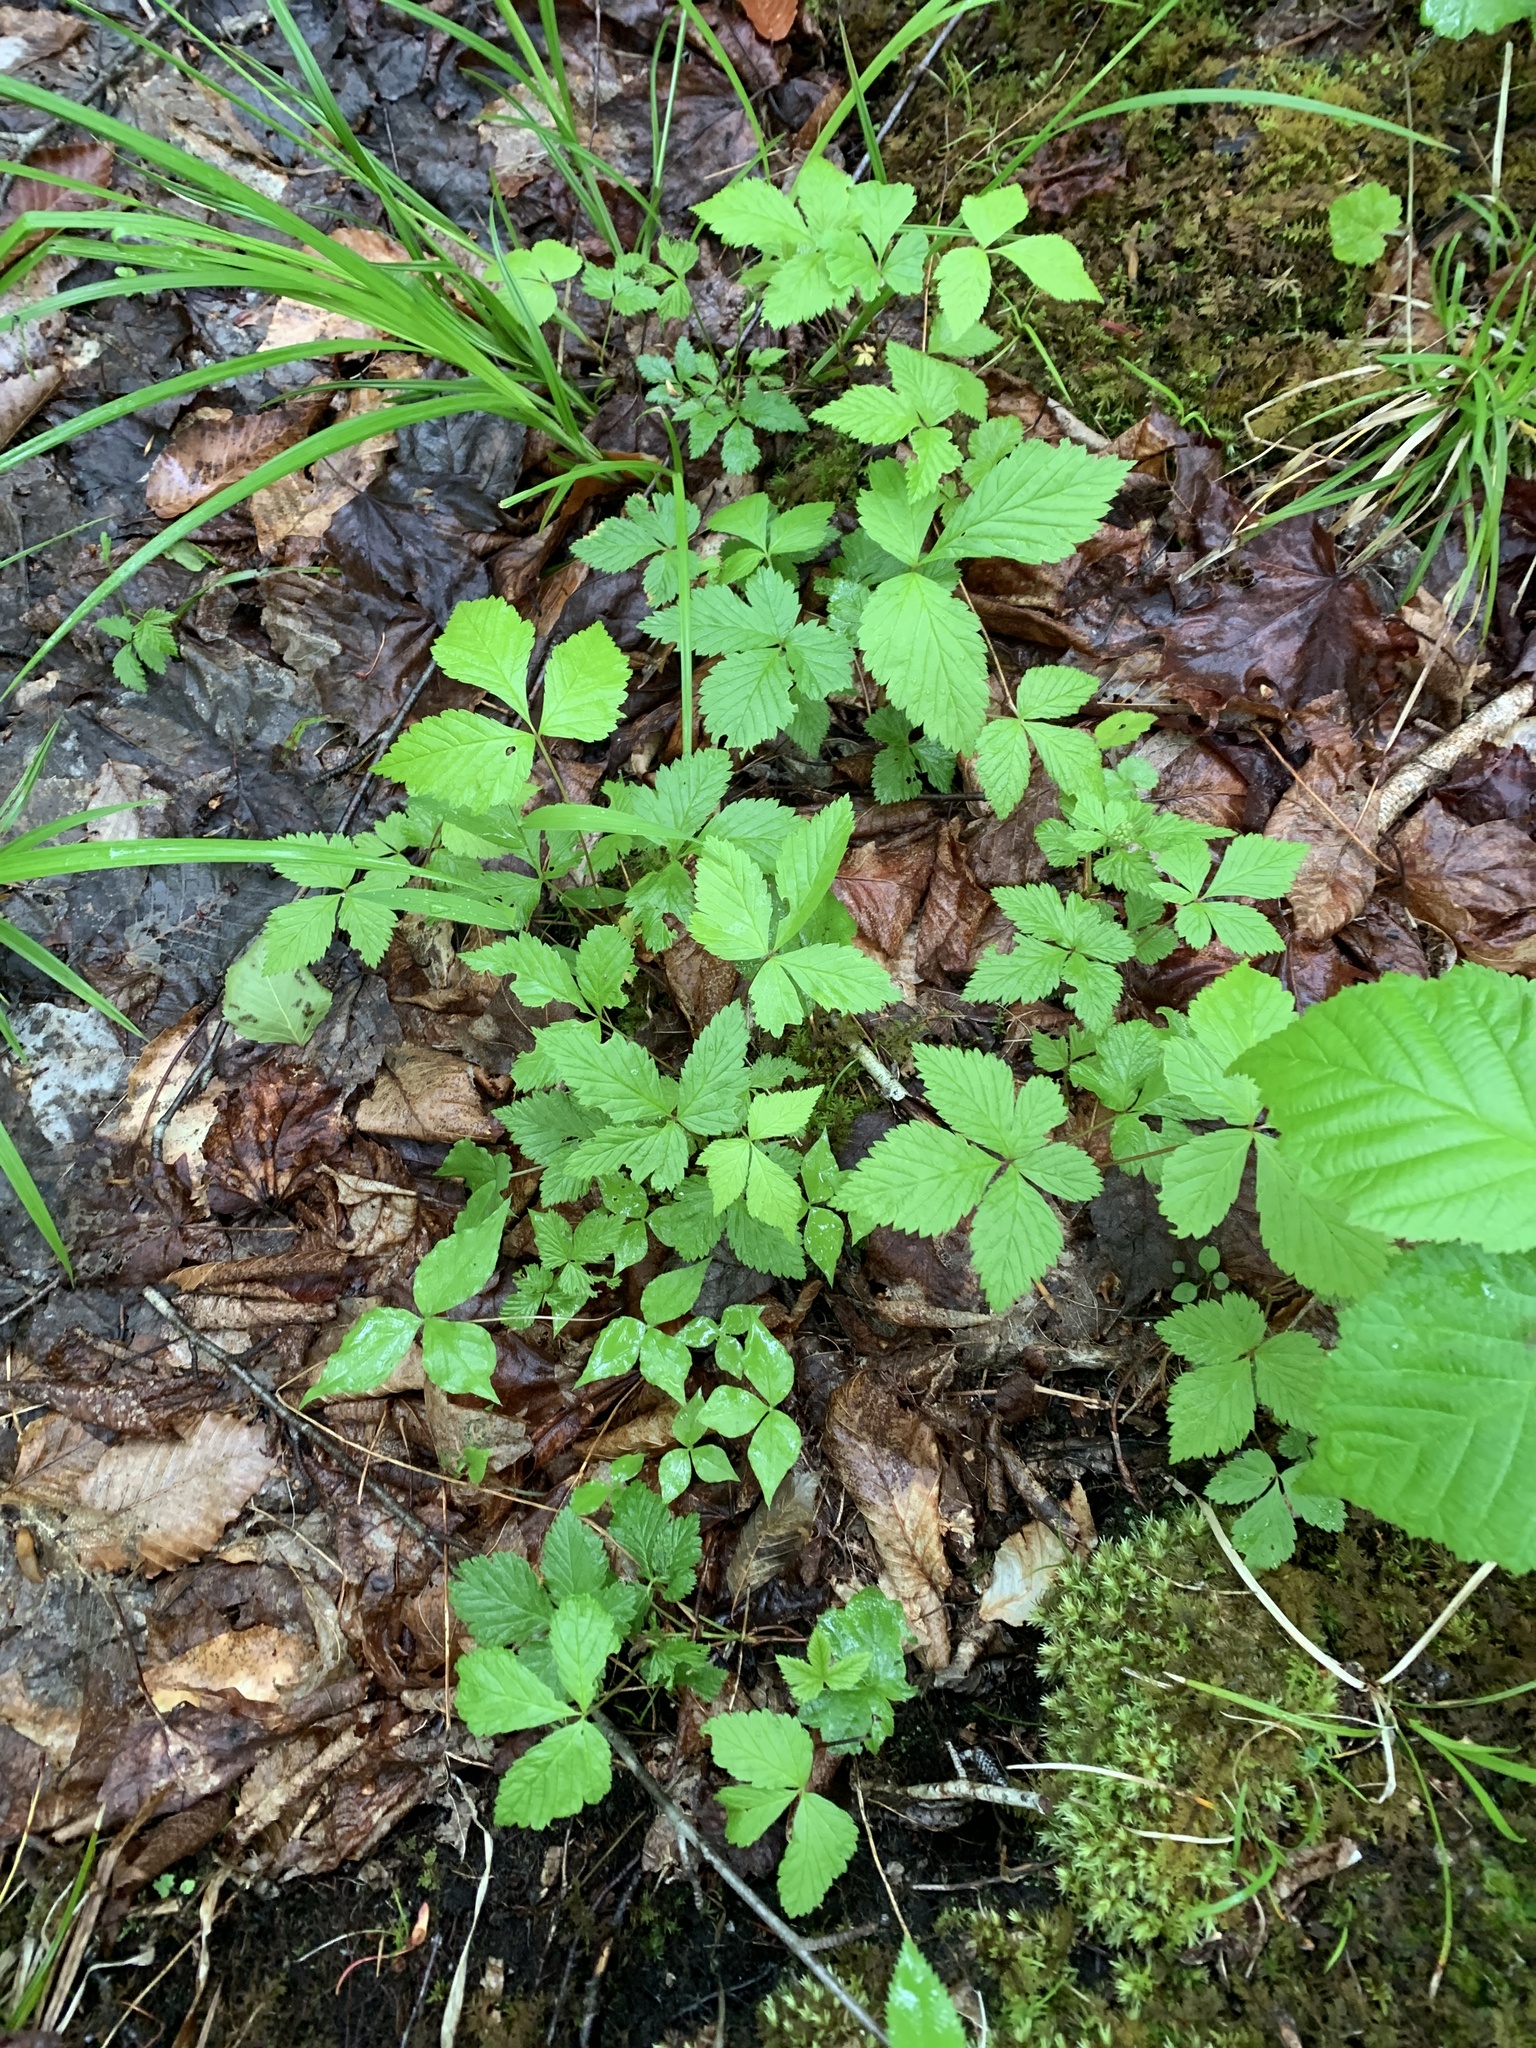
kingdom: Plantae
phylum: Tracheophyta
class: Magnoliopsida
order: Rosales
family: Rosaceae
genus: Rubus
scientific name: Rubus pubescens
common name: Dwarf raspberry
